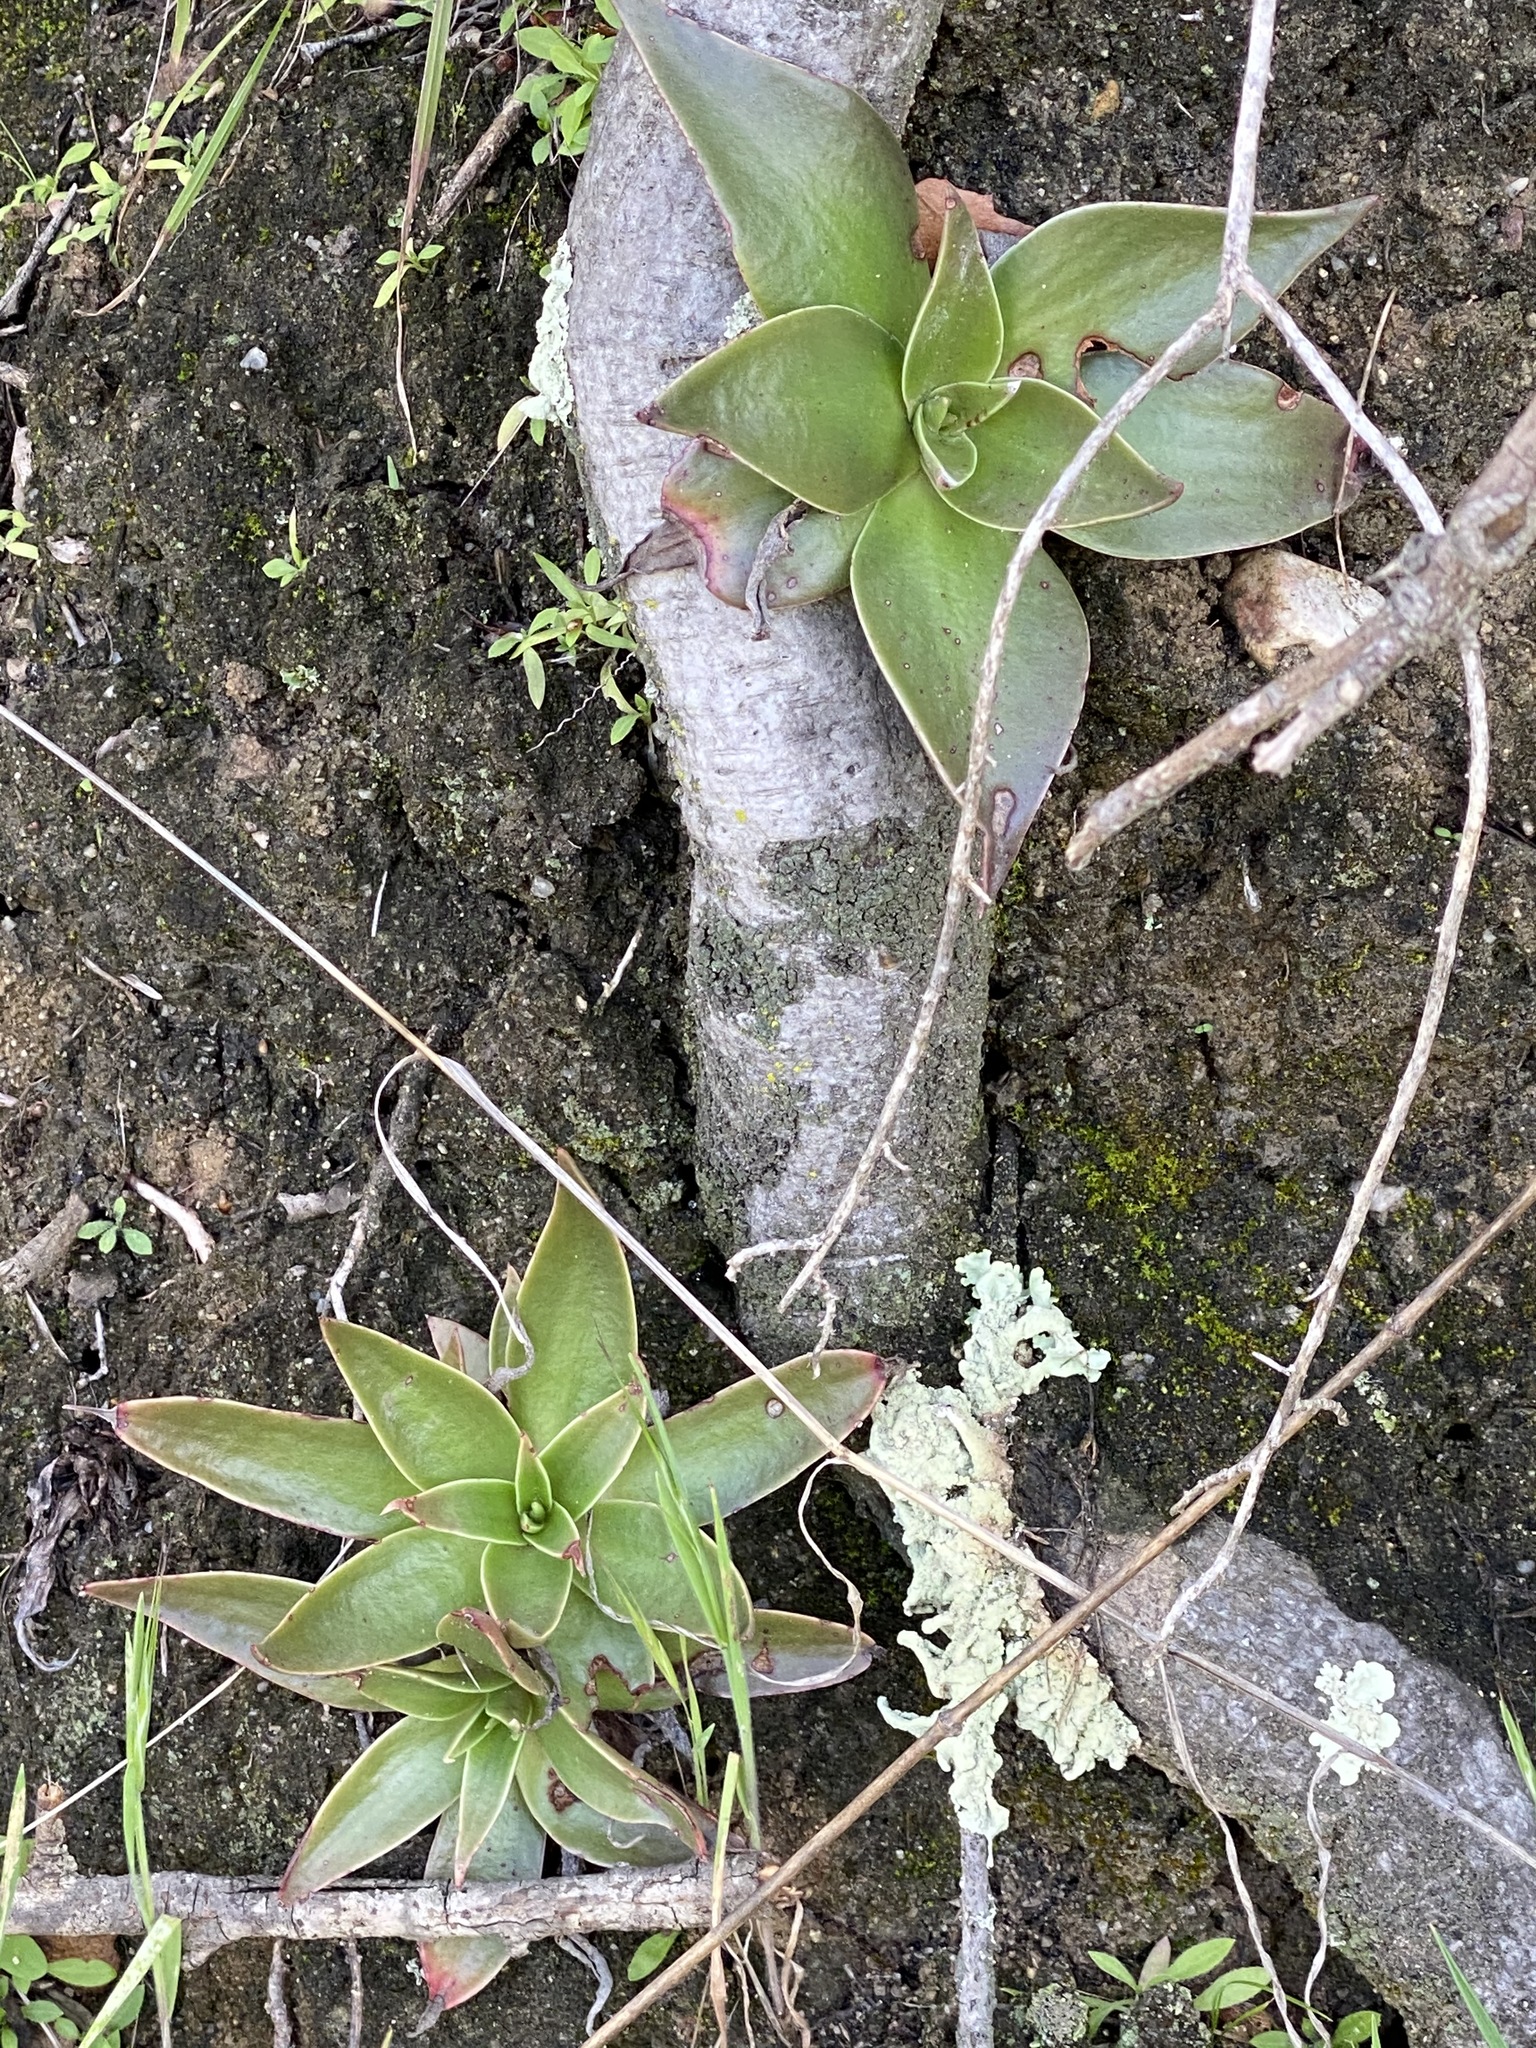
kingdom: Plantae
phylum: Tracheophyta
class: Magnoliopsida
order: Saxifragales
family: Crassulaceae
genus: Dudleya
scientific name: Dudleya lanceolata
